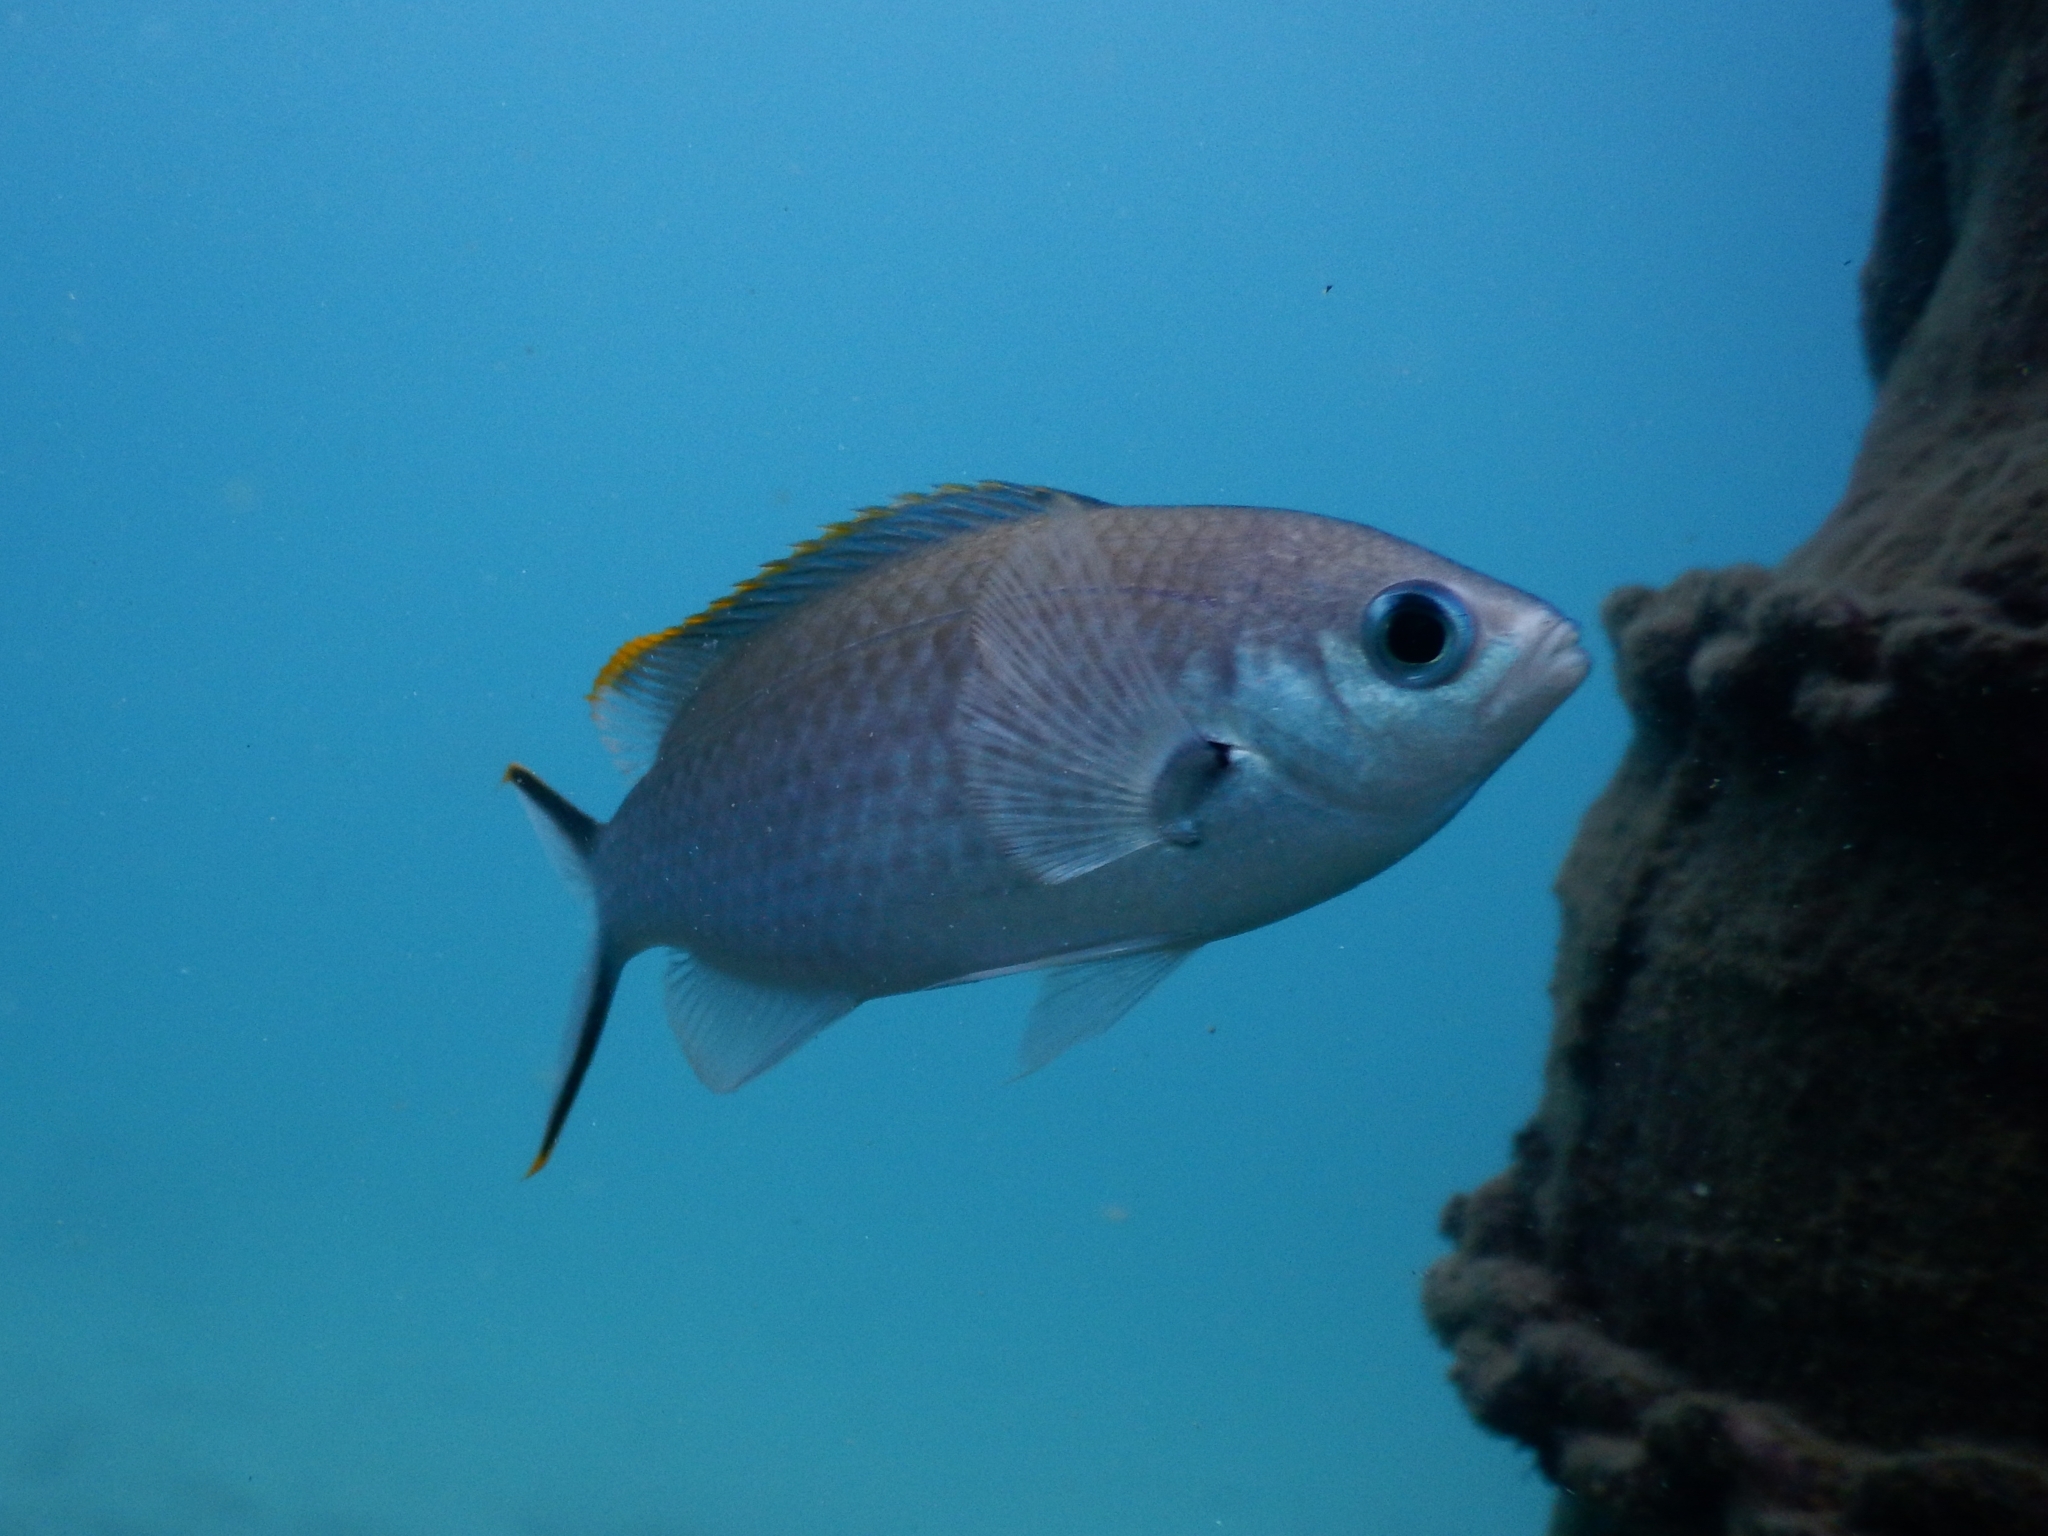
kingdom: Animalia
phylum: Chordata
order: Perciformes
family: Pomacentridae
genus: Chromis
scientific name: Chromis multilineata
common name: Brown chromis
